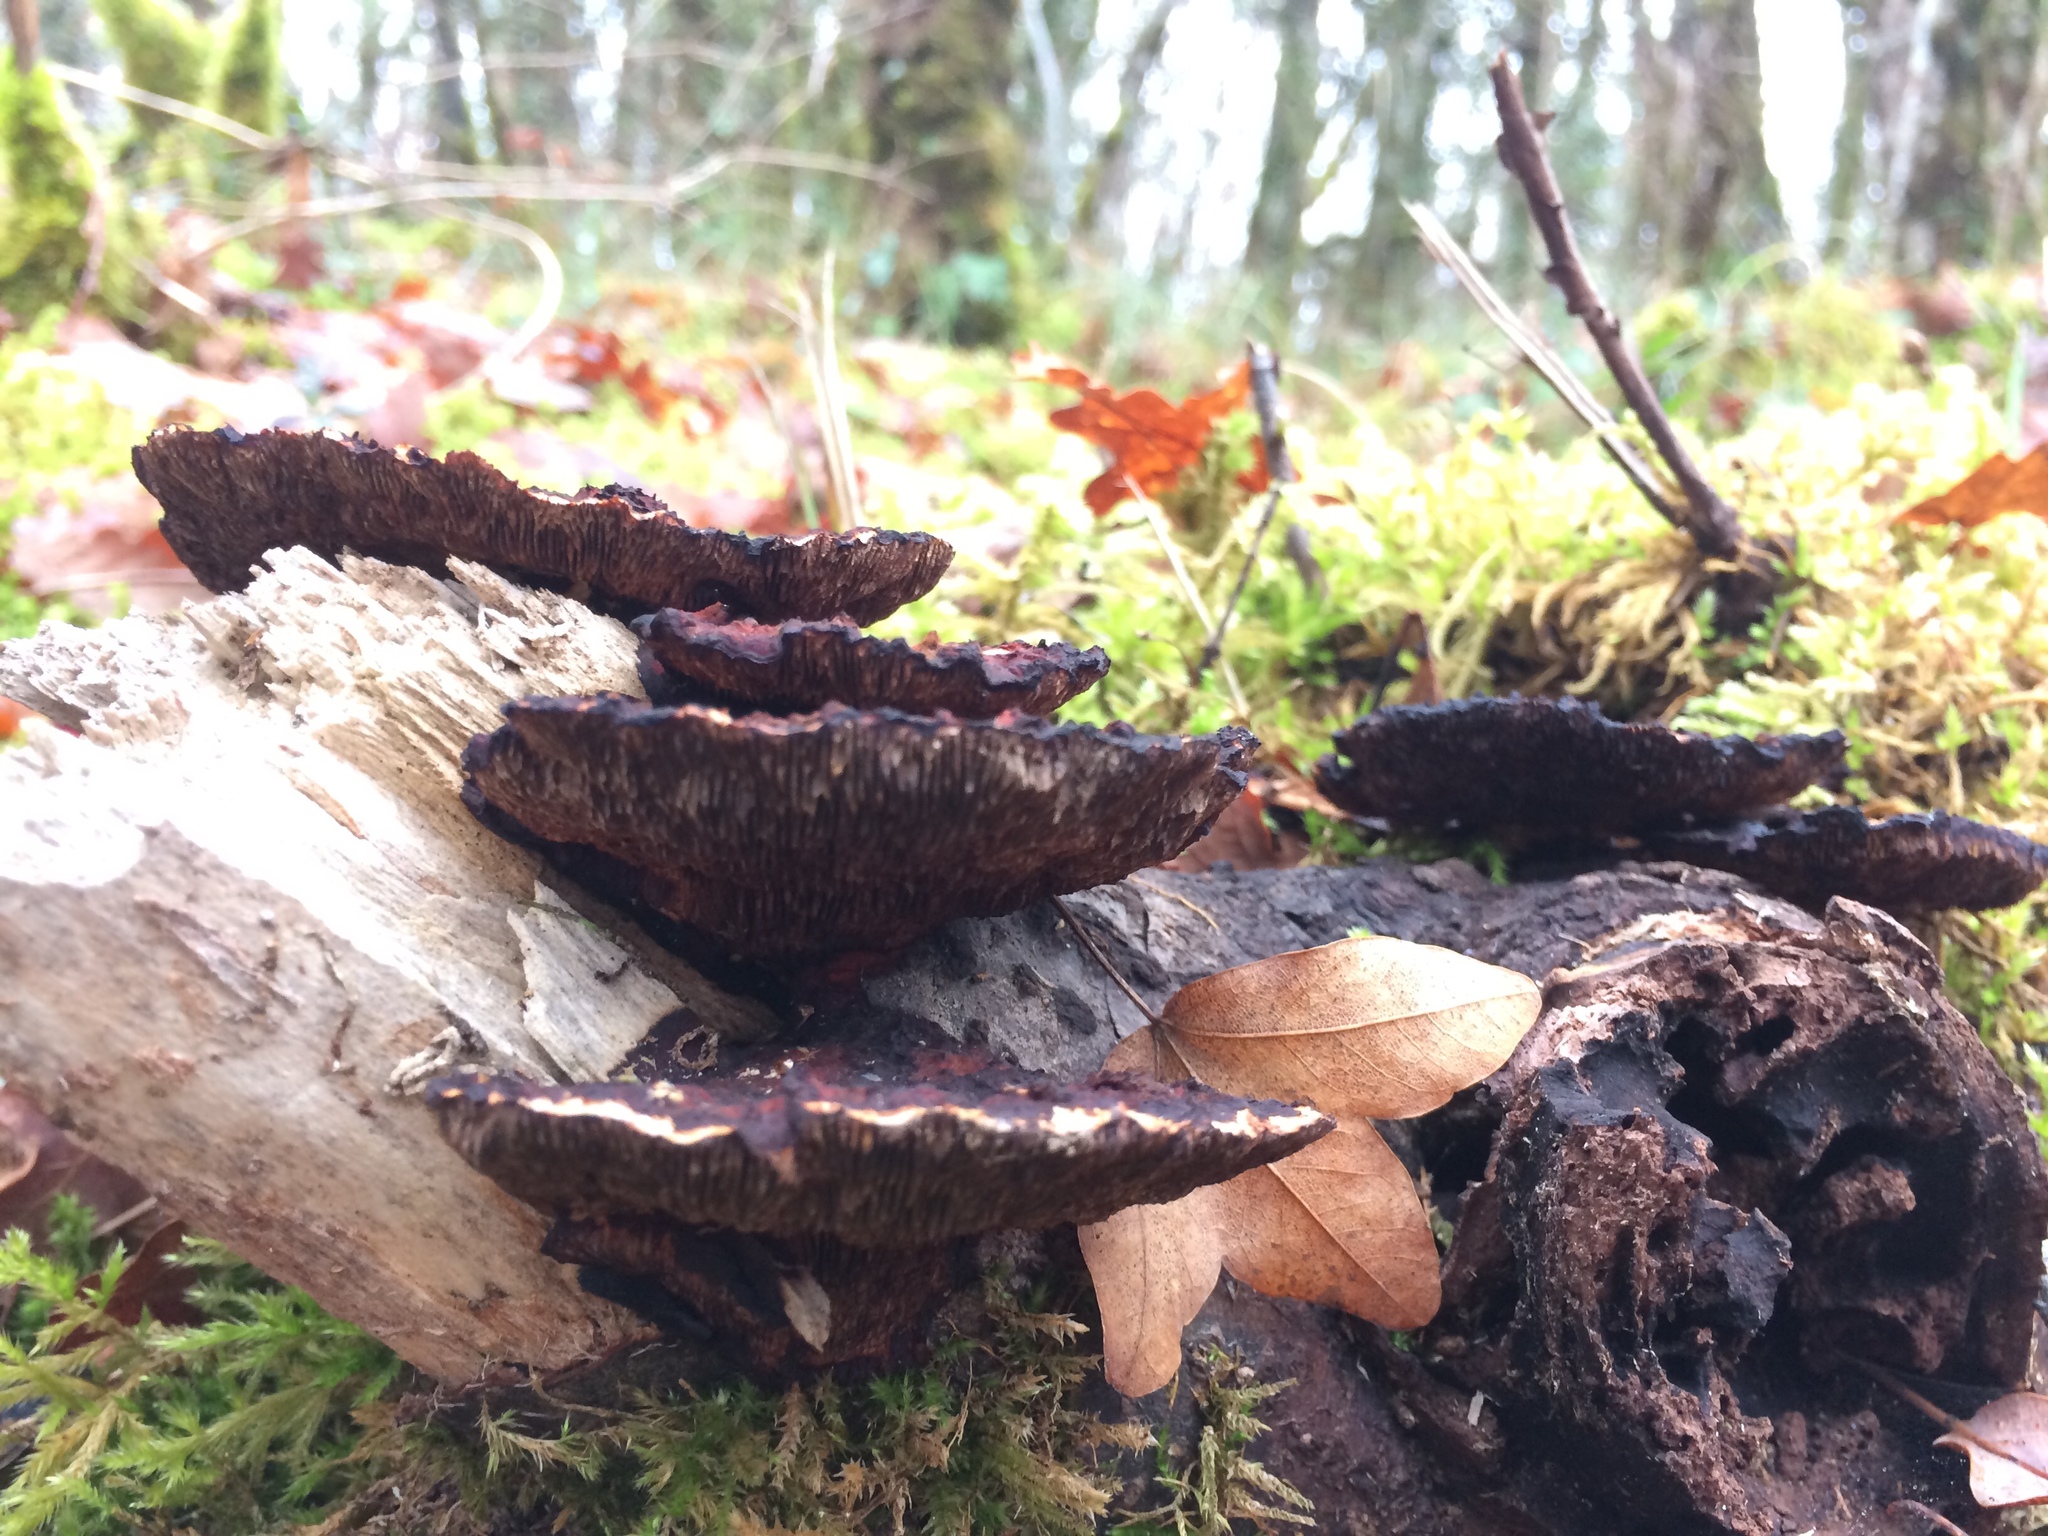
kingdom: Fungi
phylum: Basidiomycota
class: Agaricomycetes
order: Polyporales
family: Polyporaceae
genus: Daedaleopsis
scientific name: Daedaleopsis tricolor
